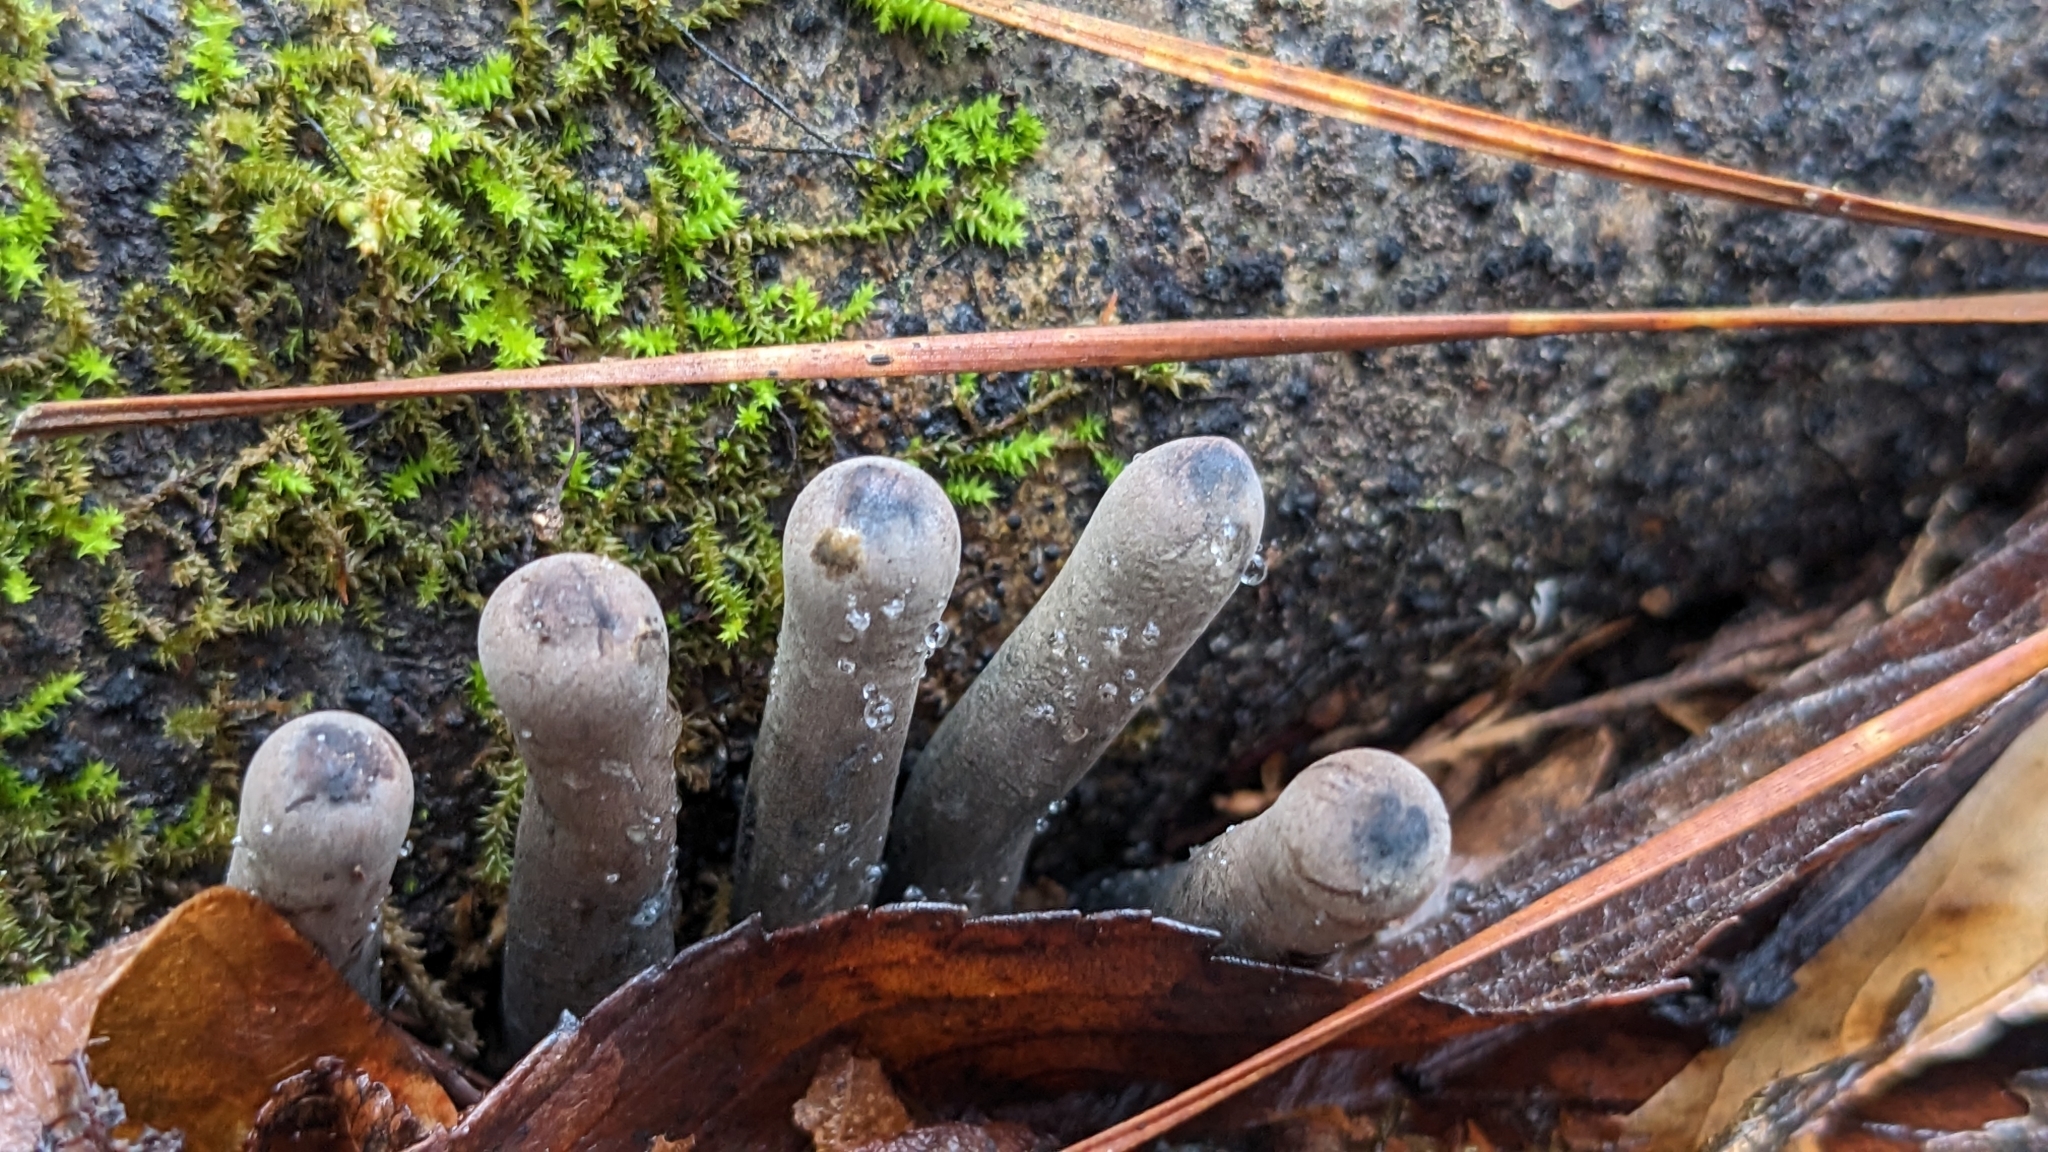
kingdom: Fungi
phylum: Ascomycota
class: Pezizomycetes
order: Pezizales
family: Sarcosomataceae
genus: Urnula
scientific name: Urnula craterium
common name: Devil's urn
